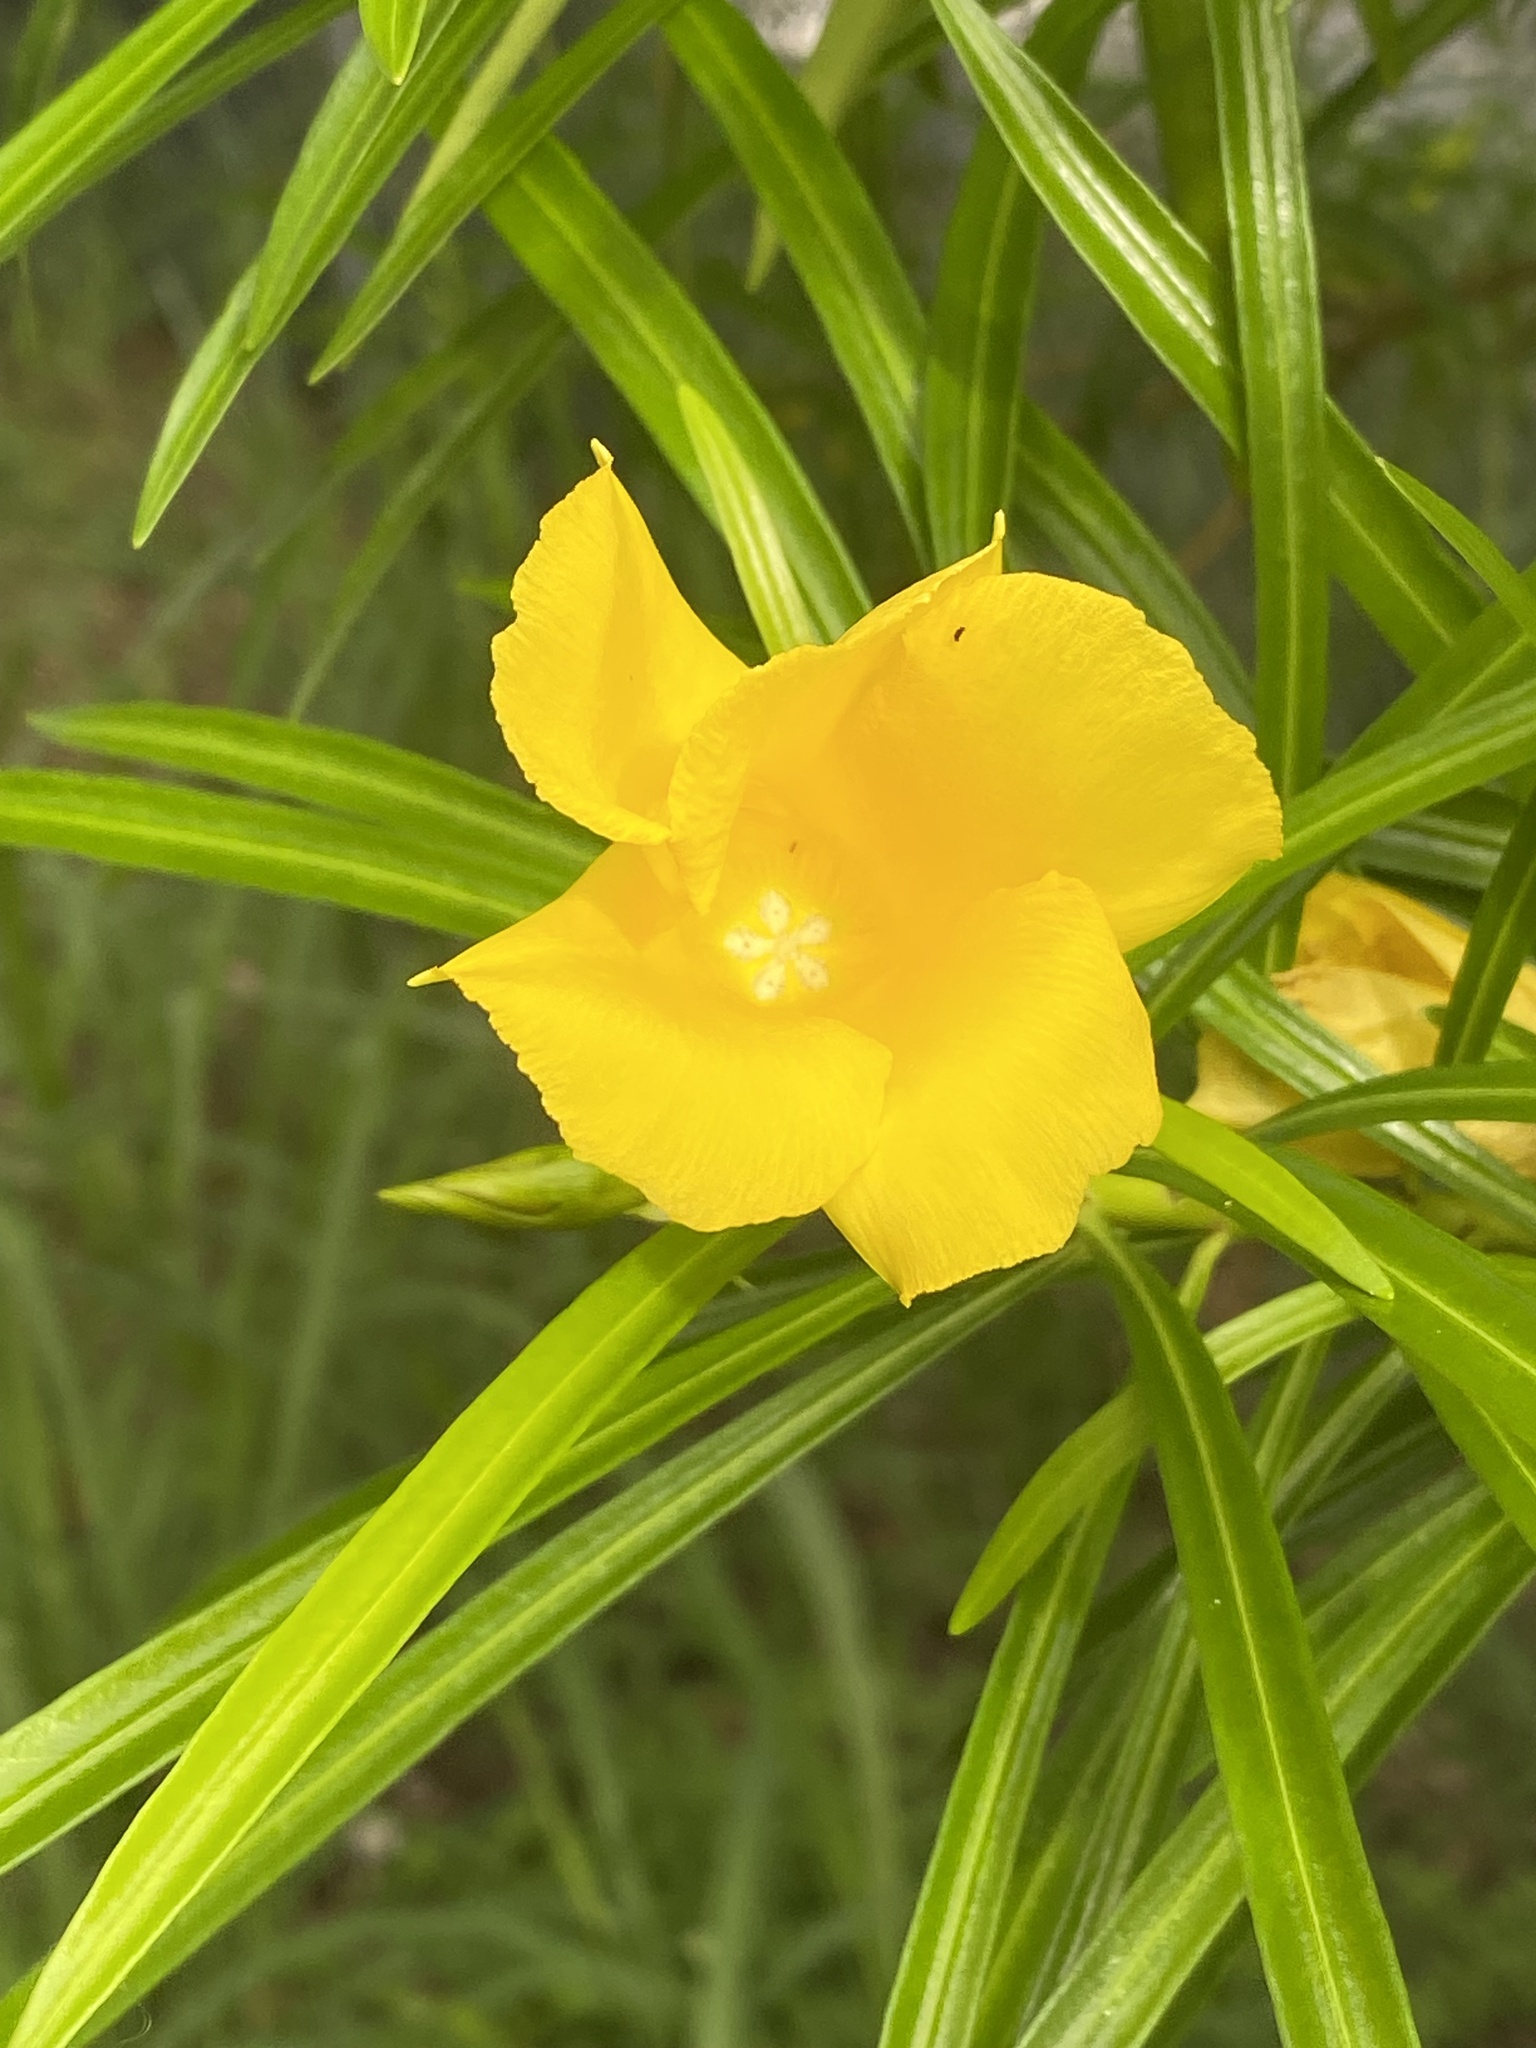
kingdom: Plantae
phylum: Tracheophyta
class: Magnoliopsida
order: Gentianales
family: Apocynaceae
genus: Cascabela
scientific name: Cascabela thevetia
